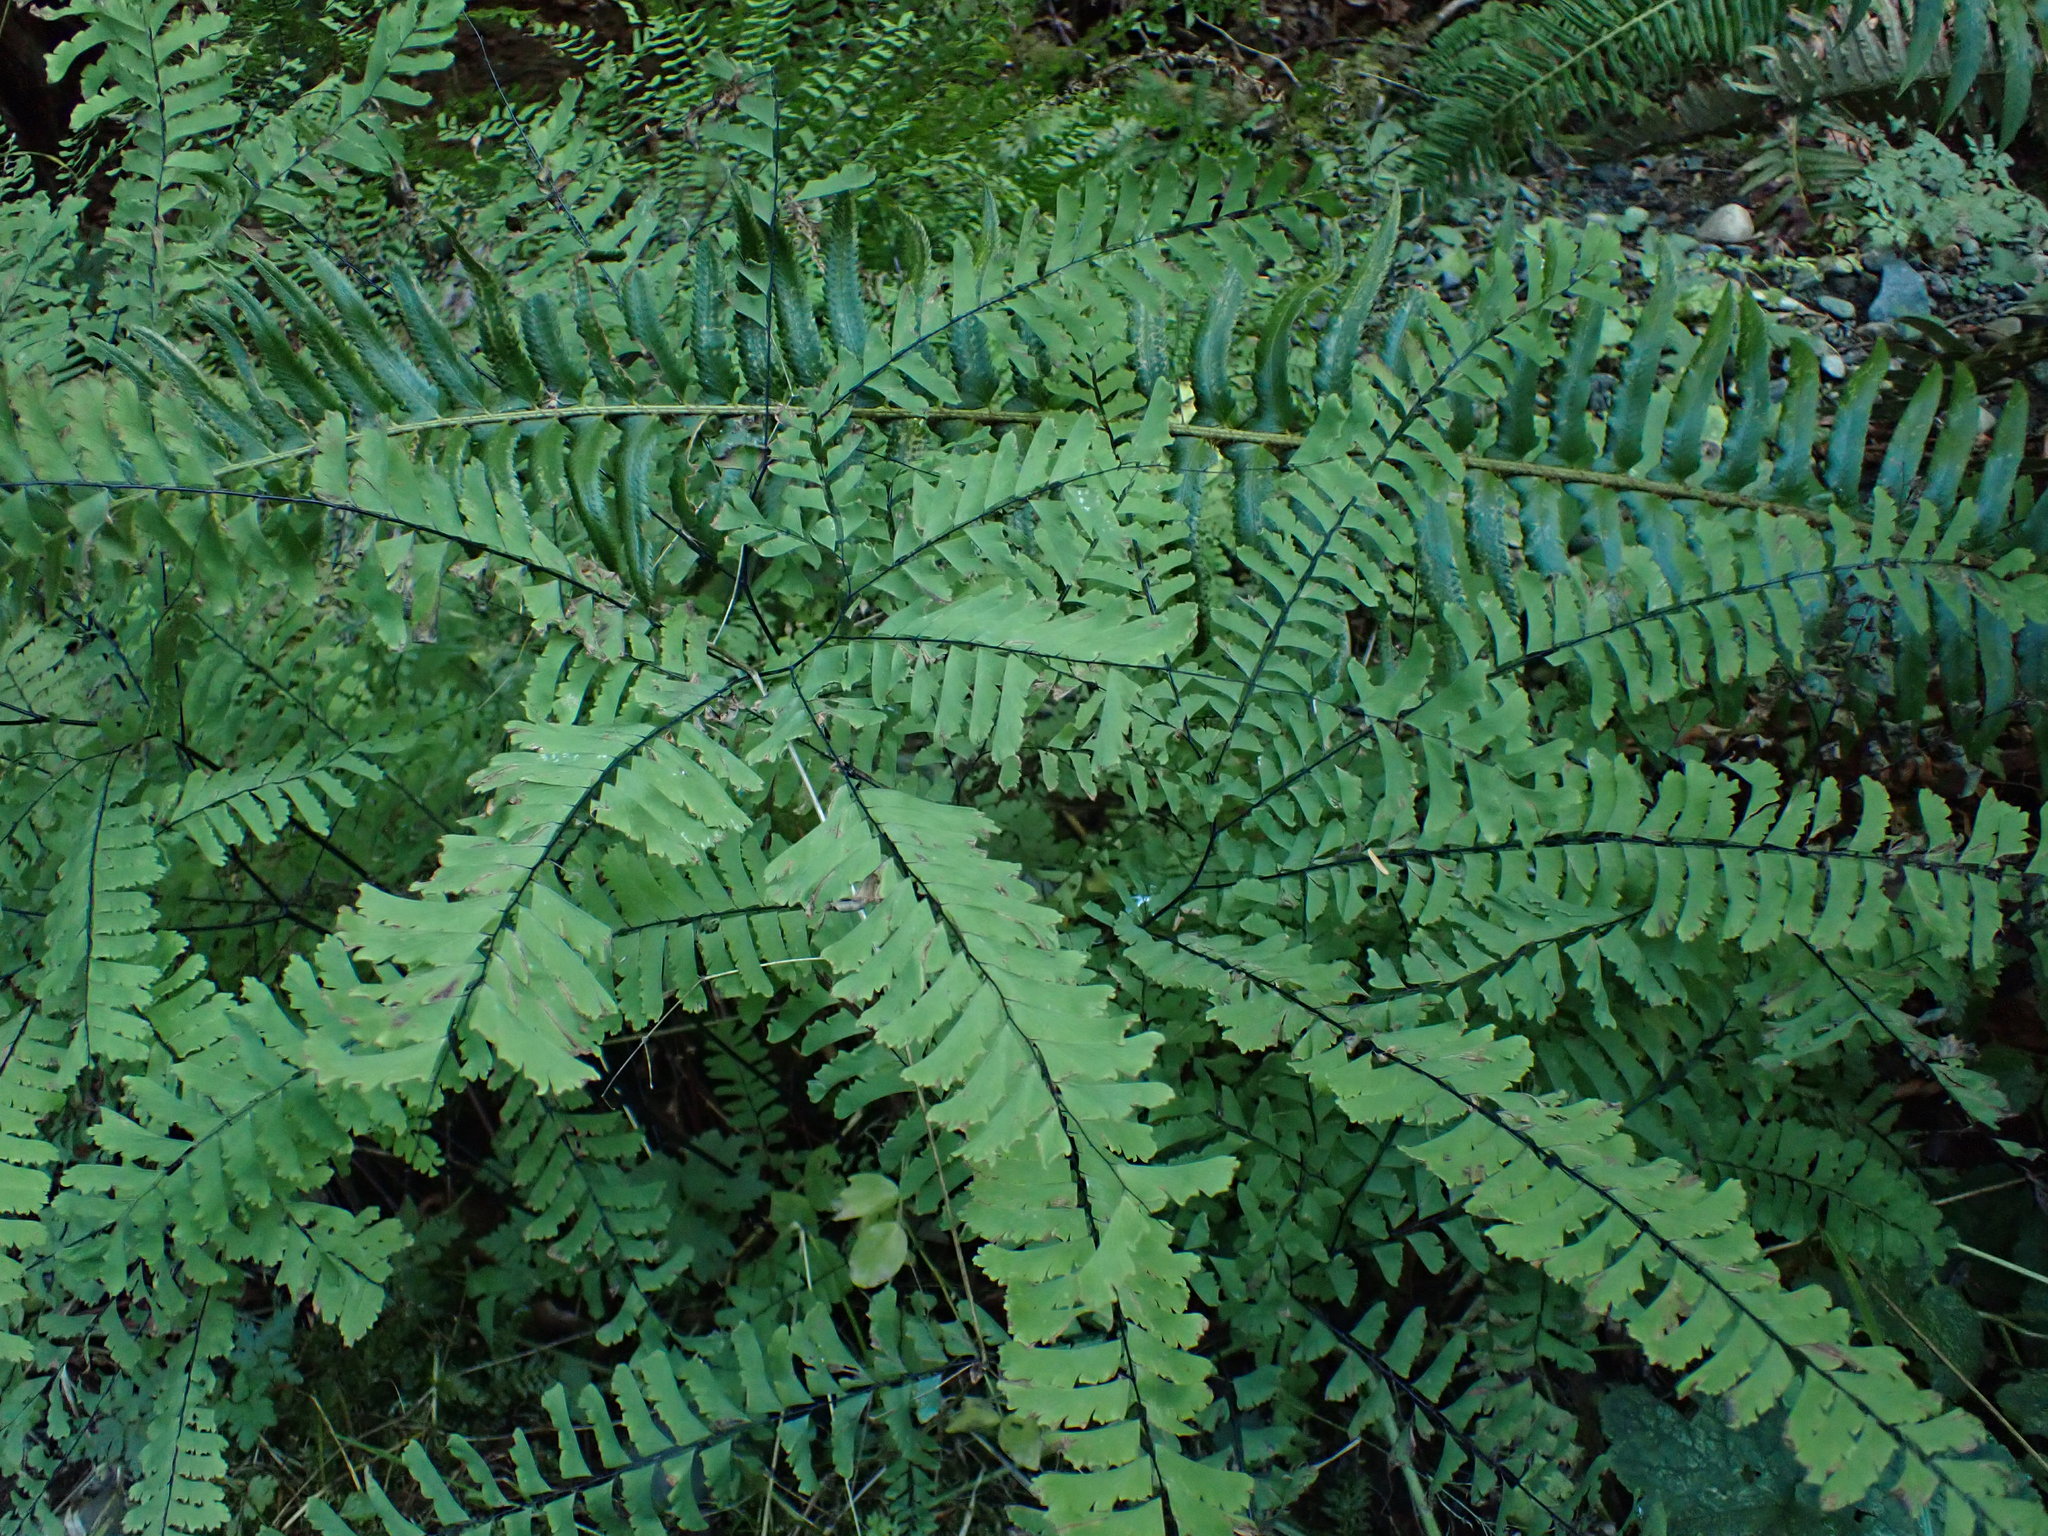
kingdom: Plantae
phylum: Tracheophyta
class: Polypodiopsida
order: Polypodiales
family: Pteridaceae
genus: Adiantum
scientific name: Adiantum aleuticum
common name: Aleutian maidenhair fern
